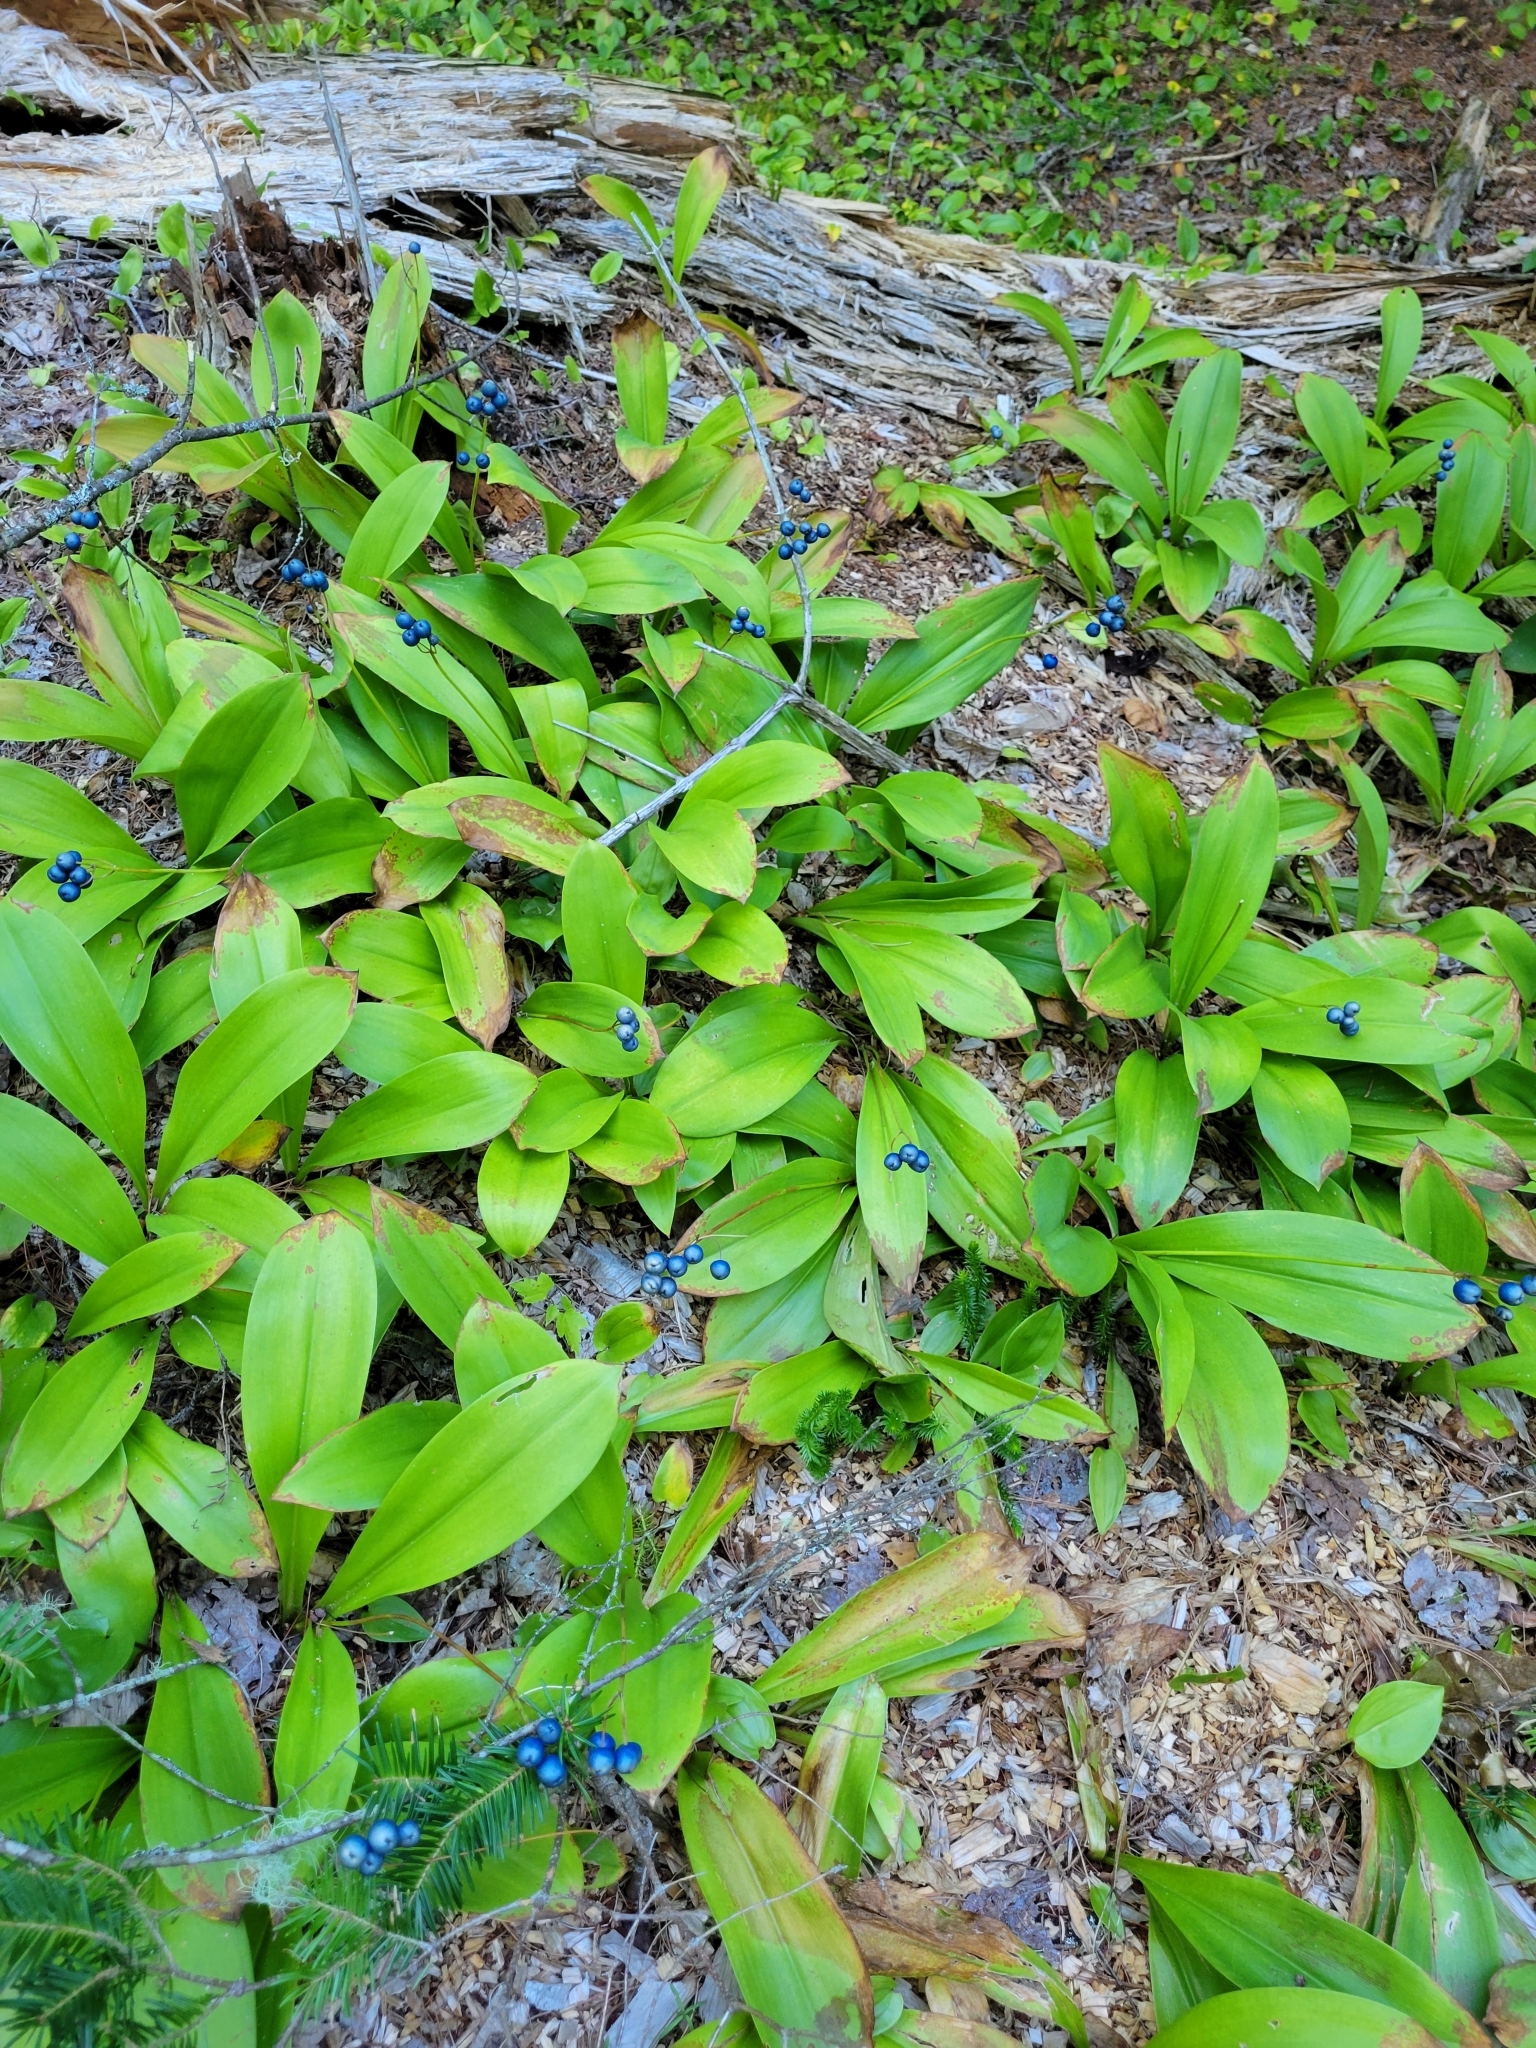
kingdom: Plantae
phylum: Tracheophyta
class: Liliopsida
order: Liliales
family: Liliaceae
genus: Clintonia
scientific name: Clintonia borealis
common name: Yellow clintonia
